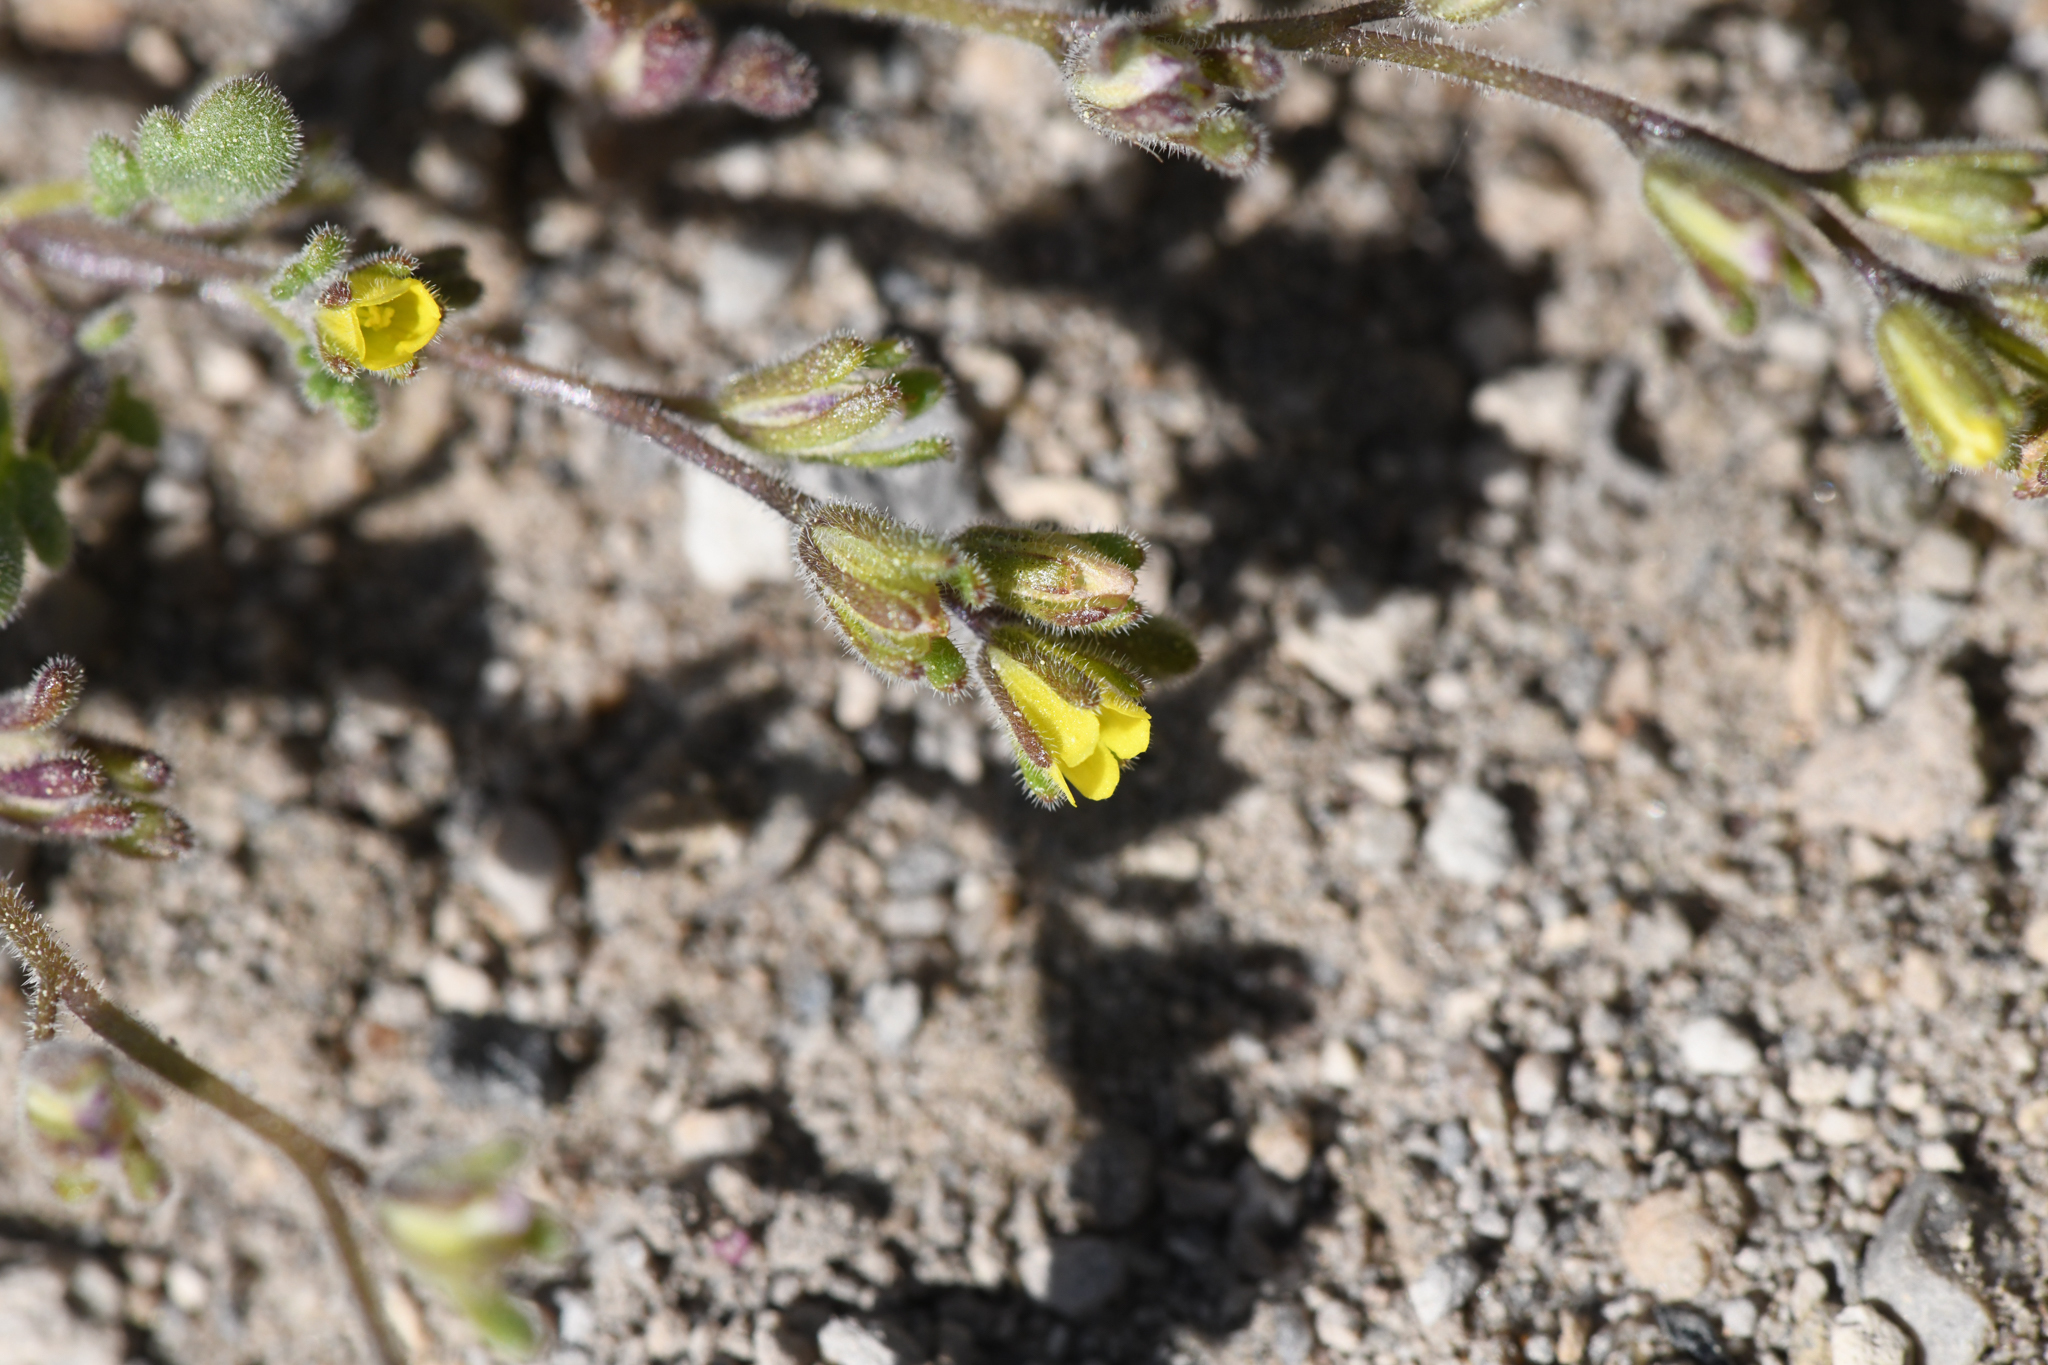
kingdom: Plantae
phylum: Tracheophyta
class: Magnoliopsida
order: Boraginales
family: Hydrophyllaceae
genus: Phacelia
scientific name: Phacelia inyoensis
